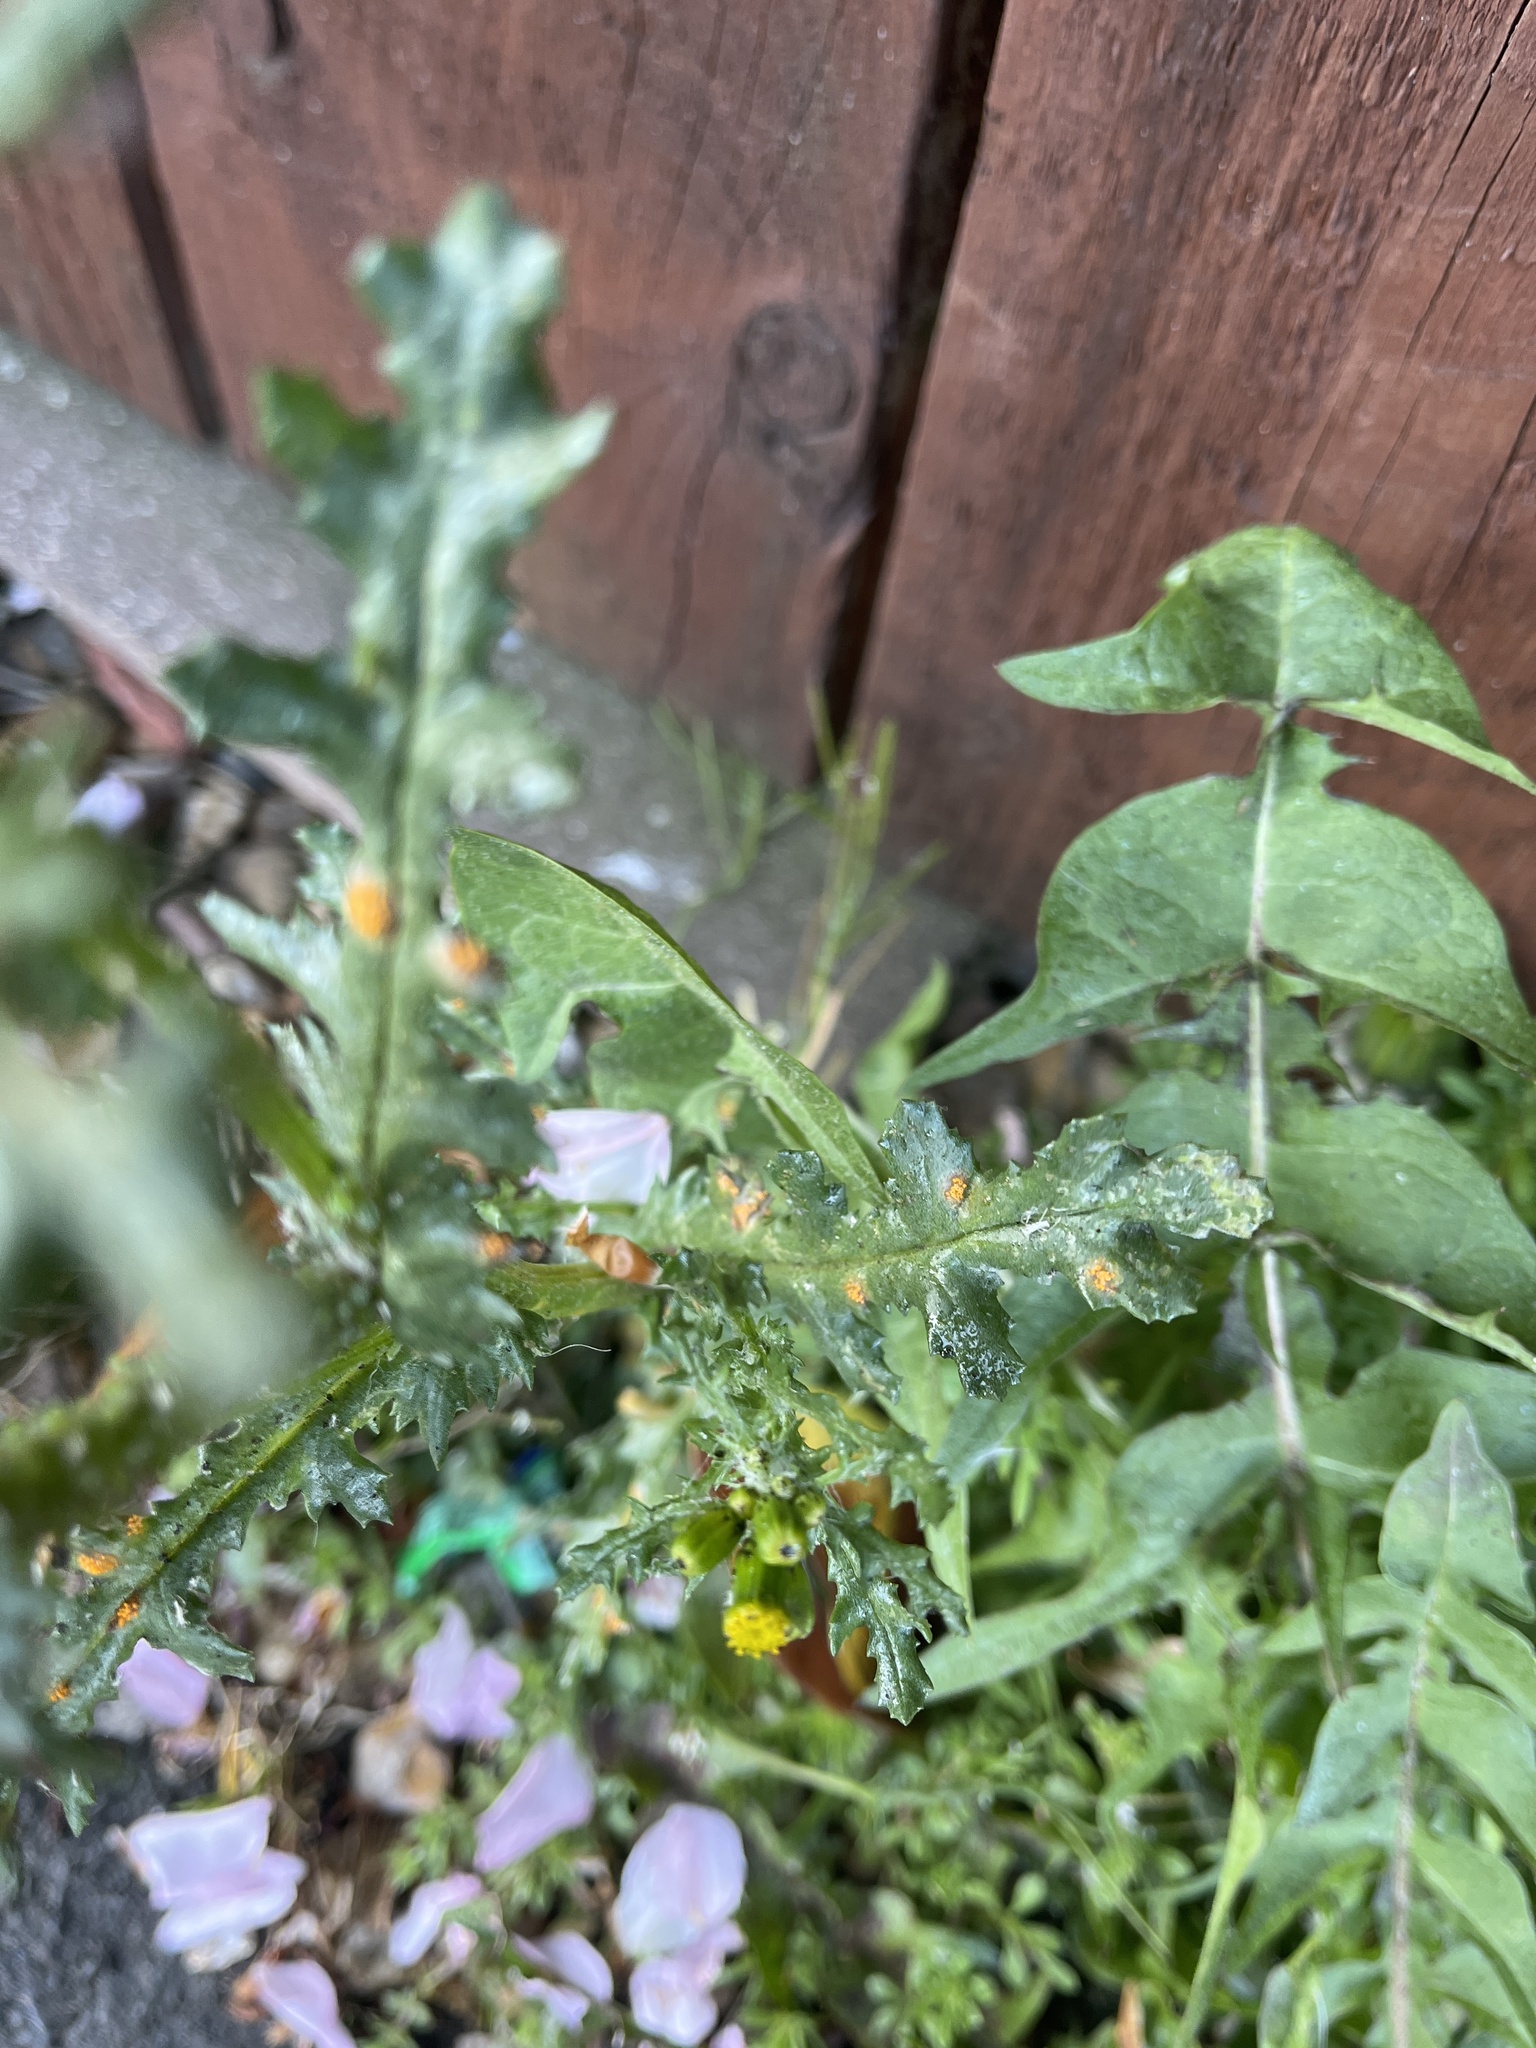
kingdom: Fungi
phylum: Basidiomycota
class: Pucciniomycetes
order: Pucciniales
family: Pucciniaceae
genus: Puccinia
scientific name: Puccinia lagenophorae
